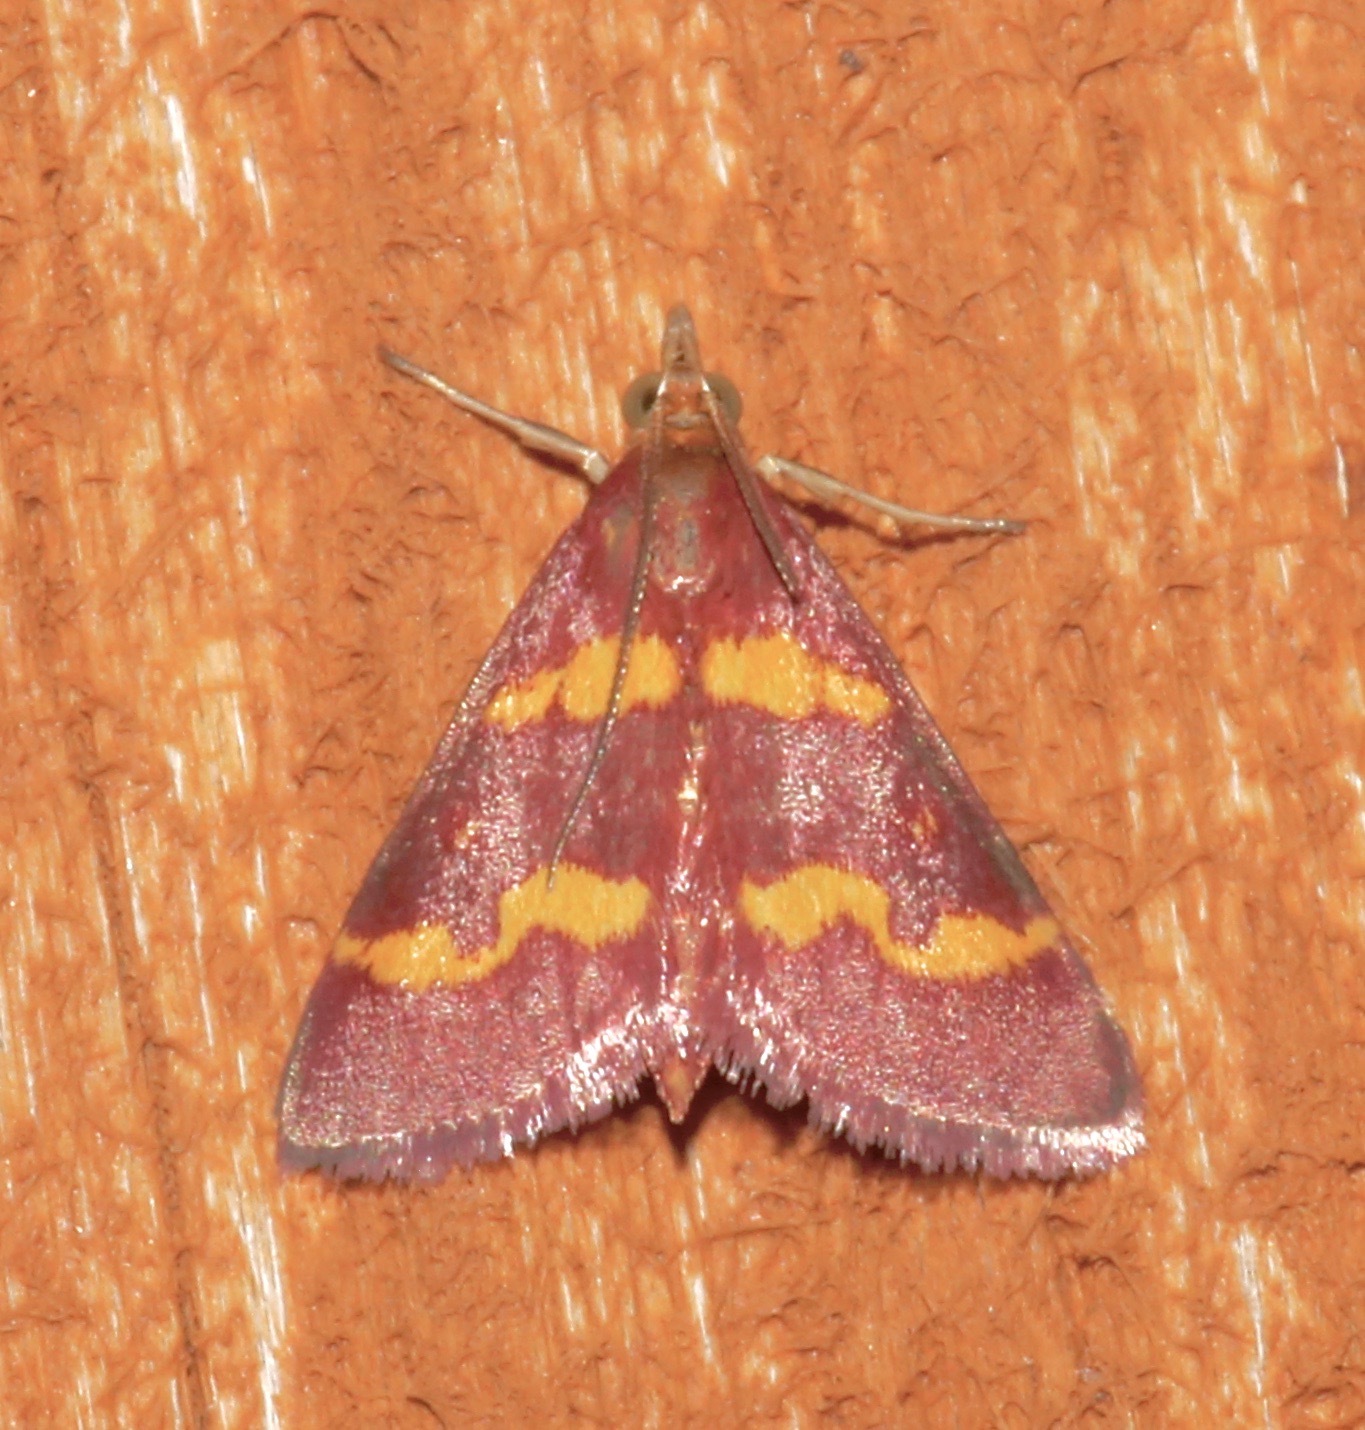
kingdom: Animalia
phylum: Arthropoda
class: Insecta
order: Lepidoptera
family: Crambidae
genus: Pyrausta
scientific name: Pyrausta tyralis
